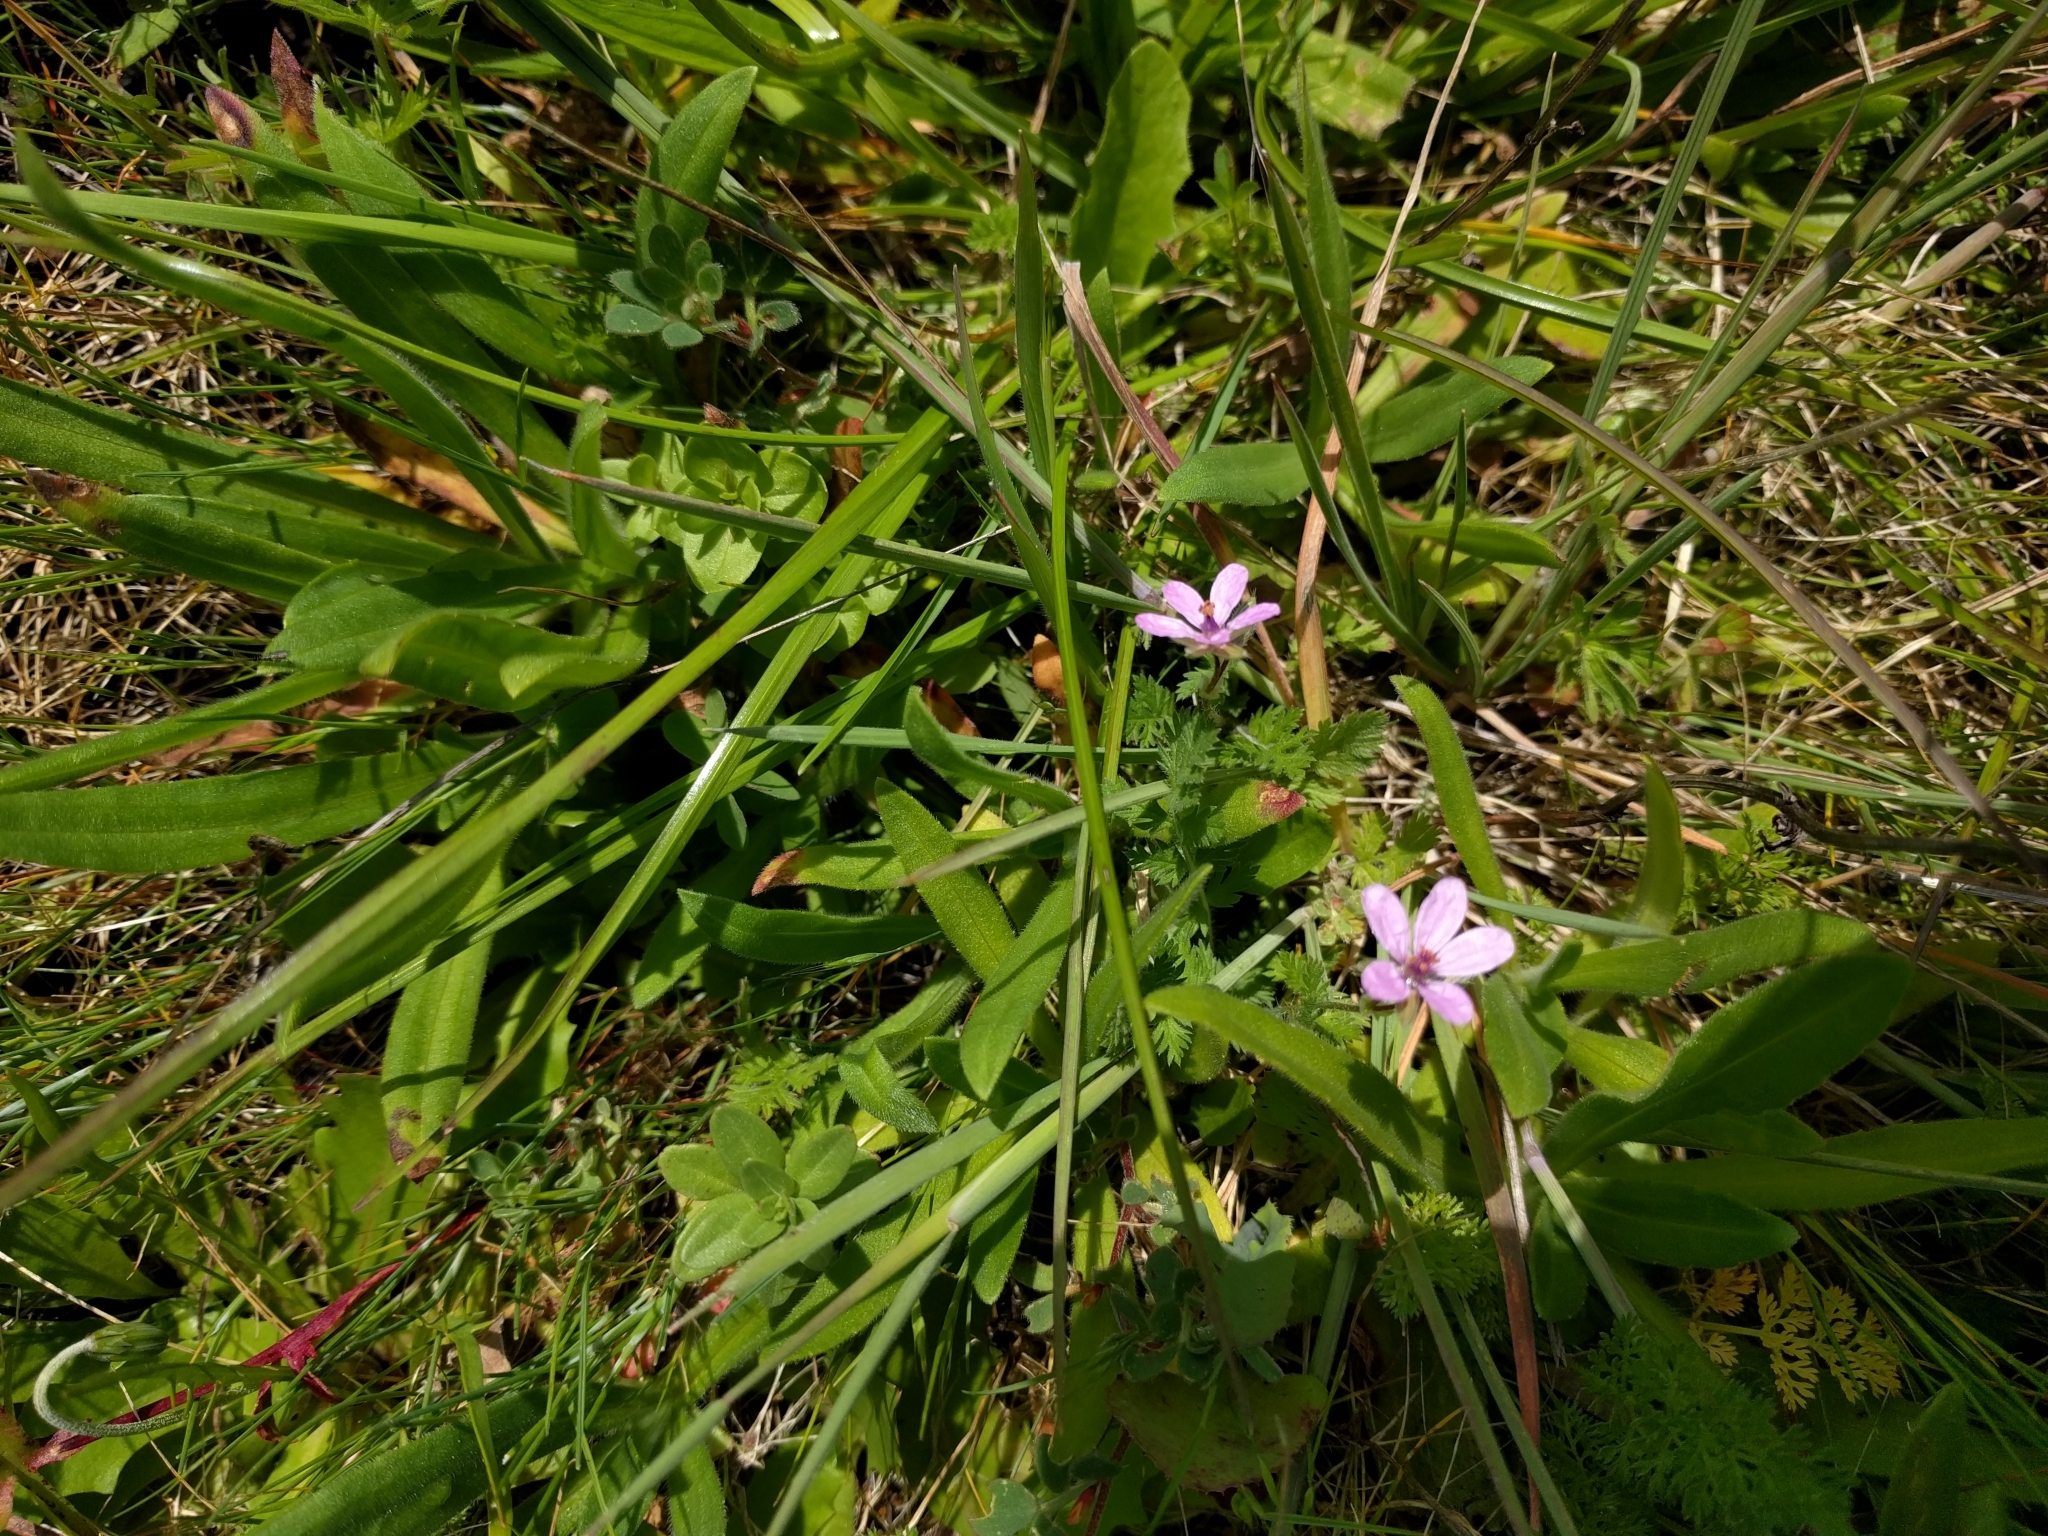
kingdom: Plantae
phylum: Tracheophyta
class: Magnoliopsida
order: Geraniales
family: Geraniaceae
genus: Erodium
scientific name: Erodium cicutarium
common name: Common stork's-bill
